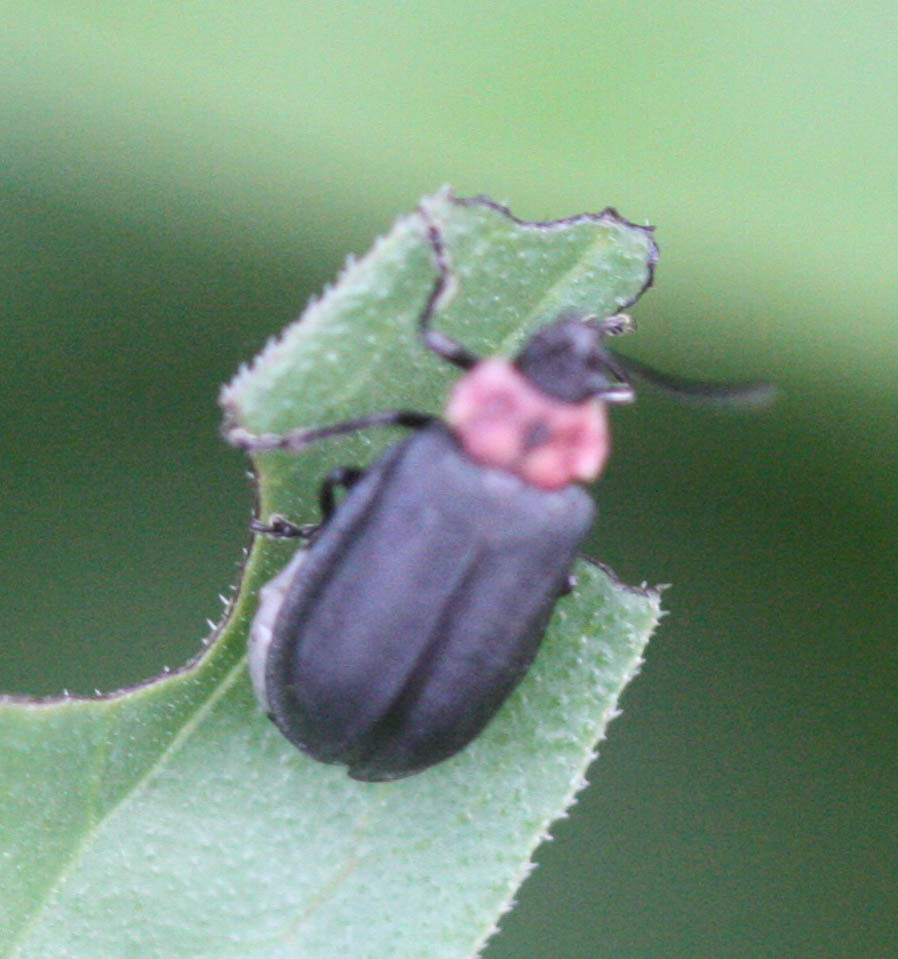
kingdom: Animalia
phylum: Arthropoda
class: Insecta
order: Coleoptera
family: Chrysomelidae
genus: Ophraea
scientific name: Ophraea rugosa
